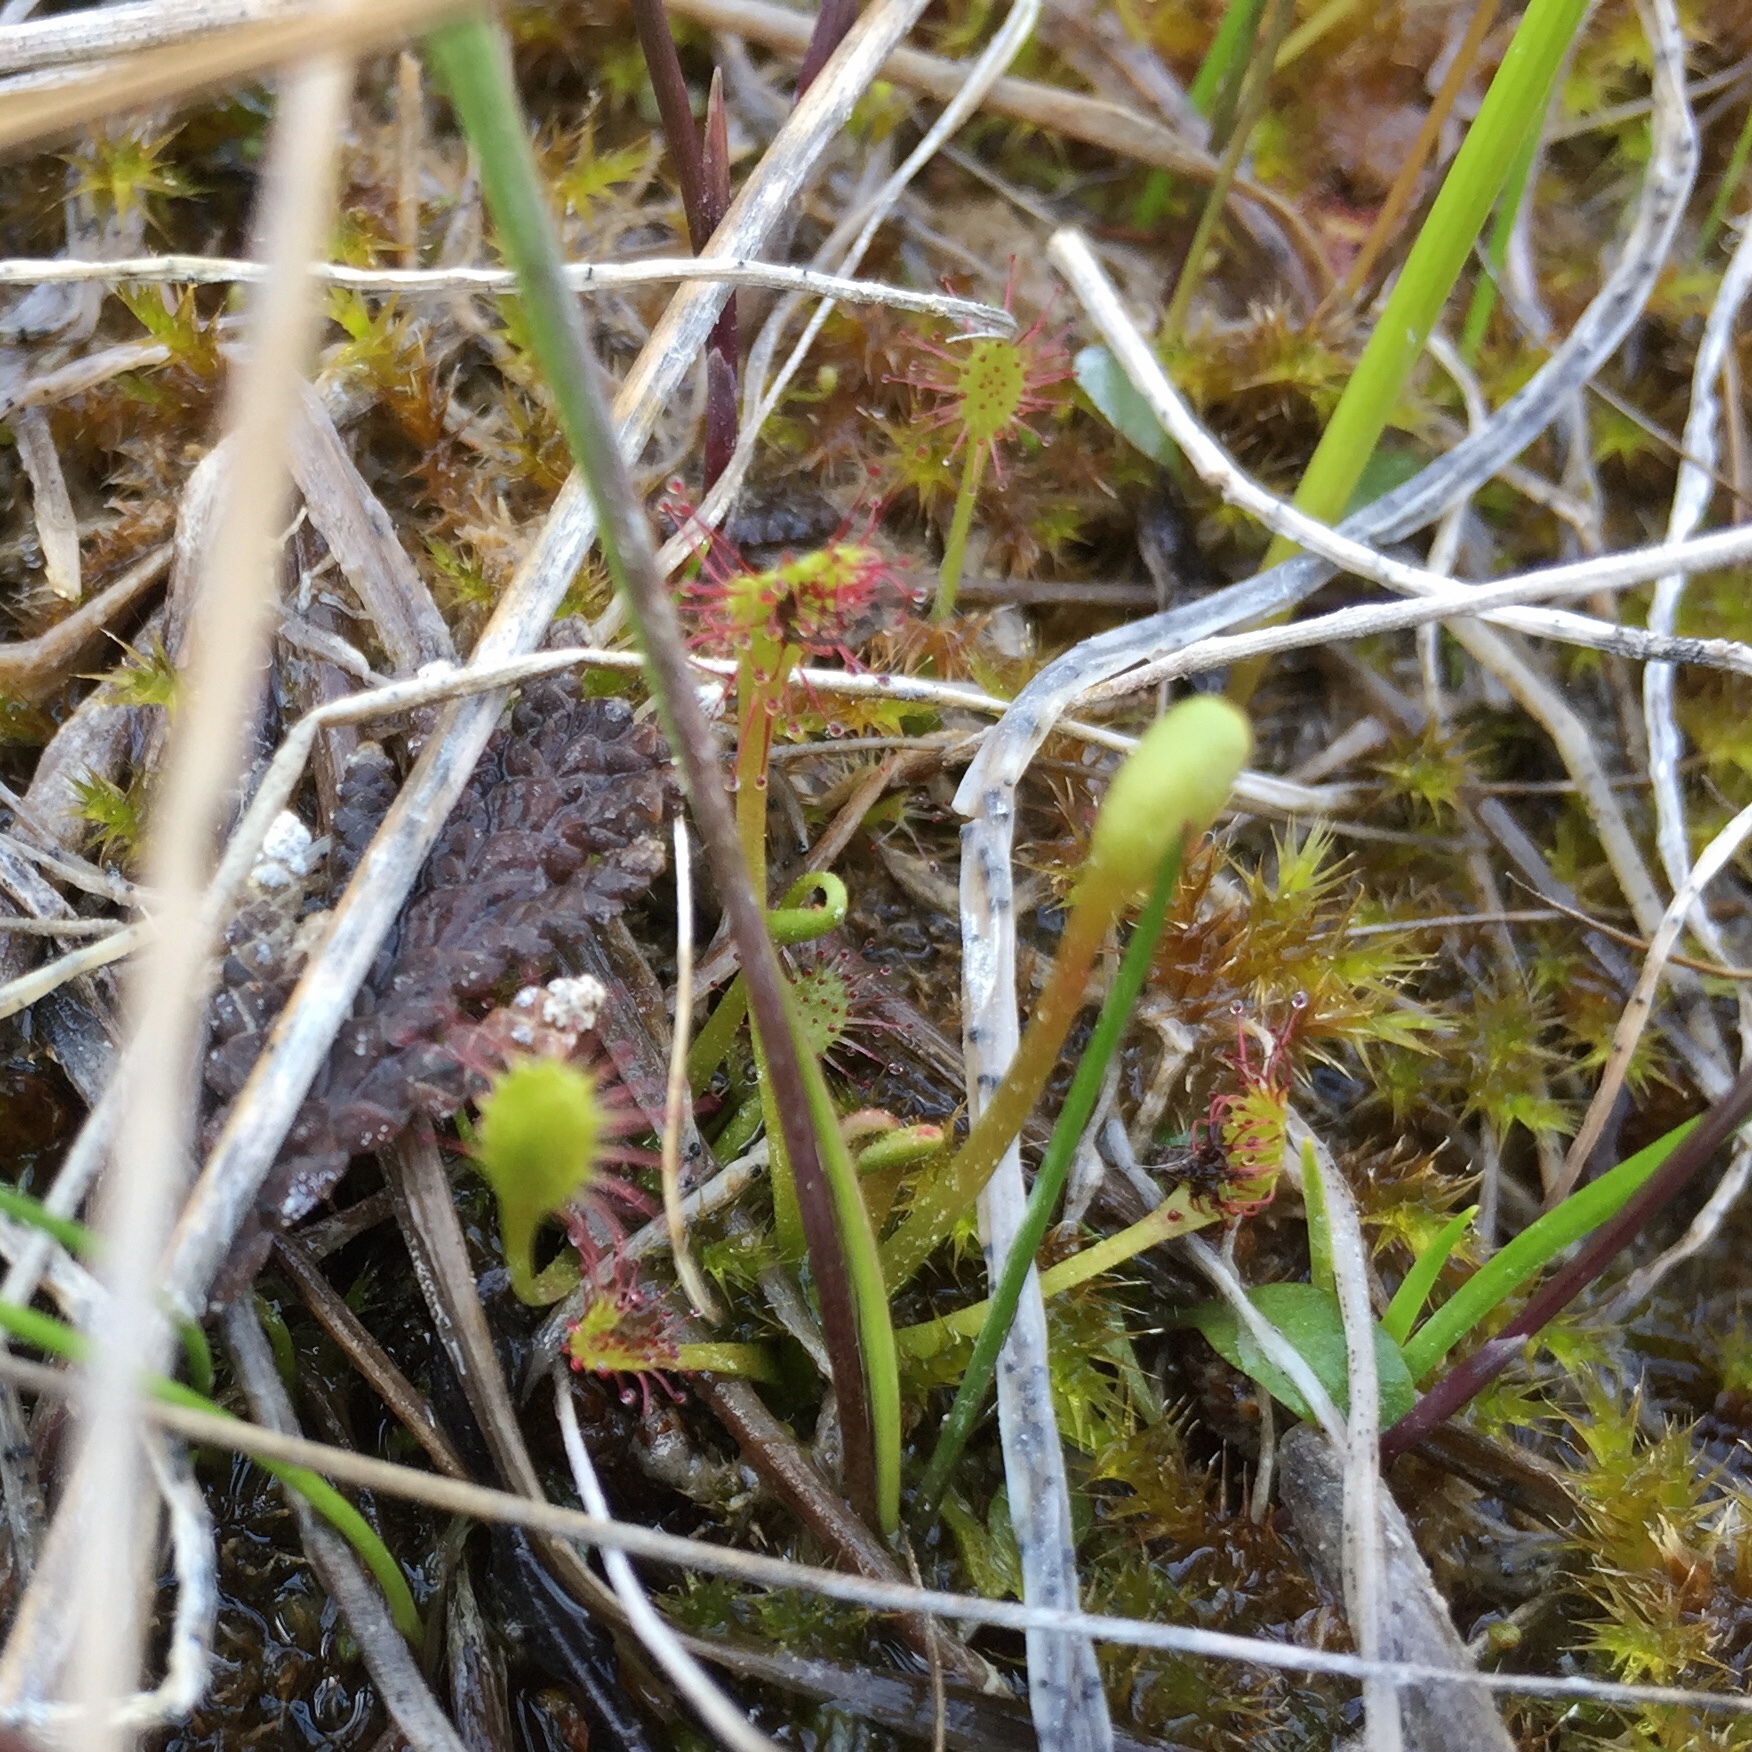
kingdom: Plantae
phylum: Tracheophyta
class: Magnoliopsida
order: Caryophyllales
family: Droseraceae
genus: Drosera
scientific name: Drosera anglica
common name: Great sundew
